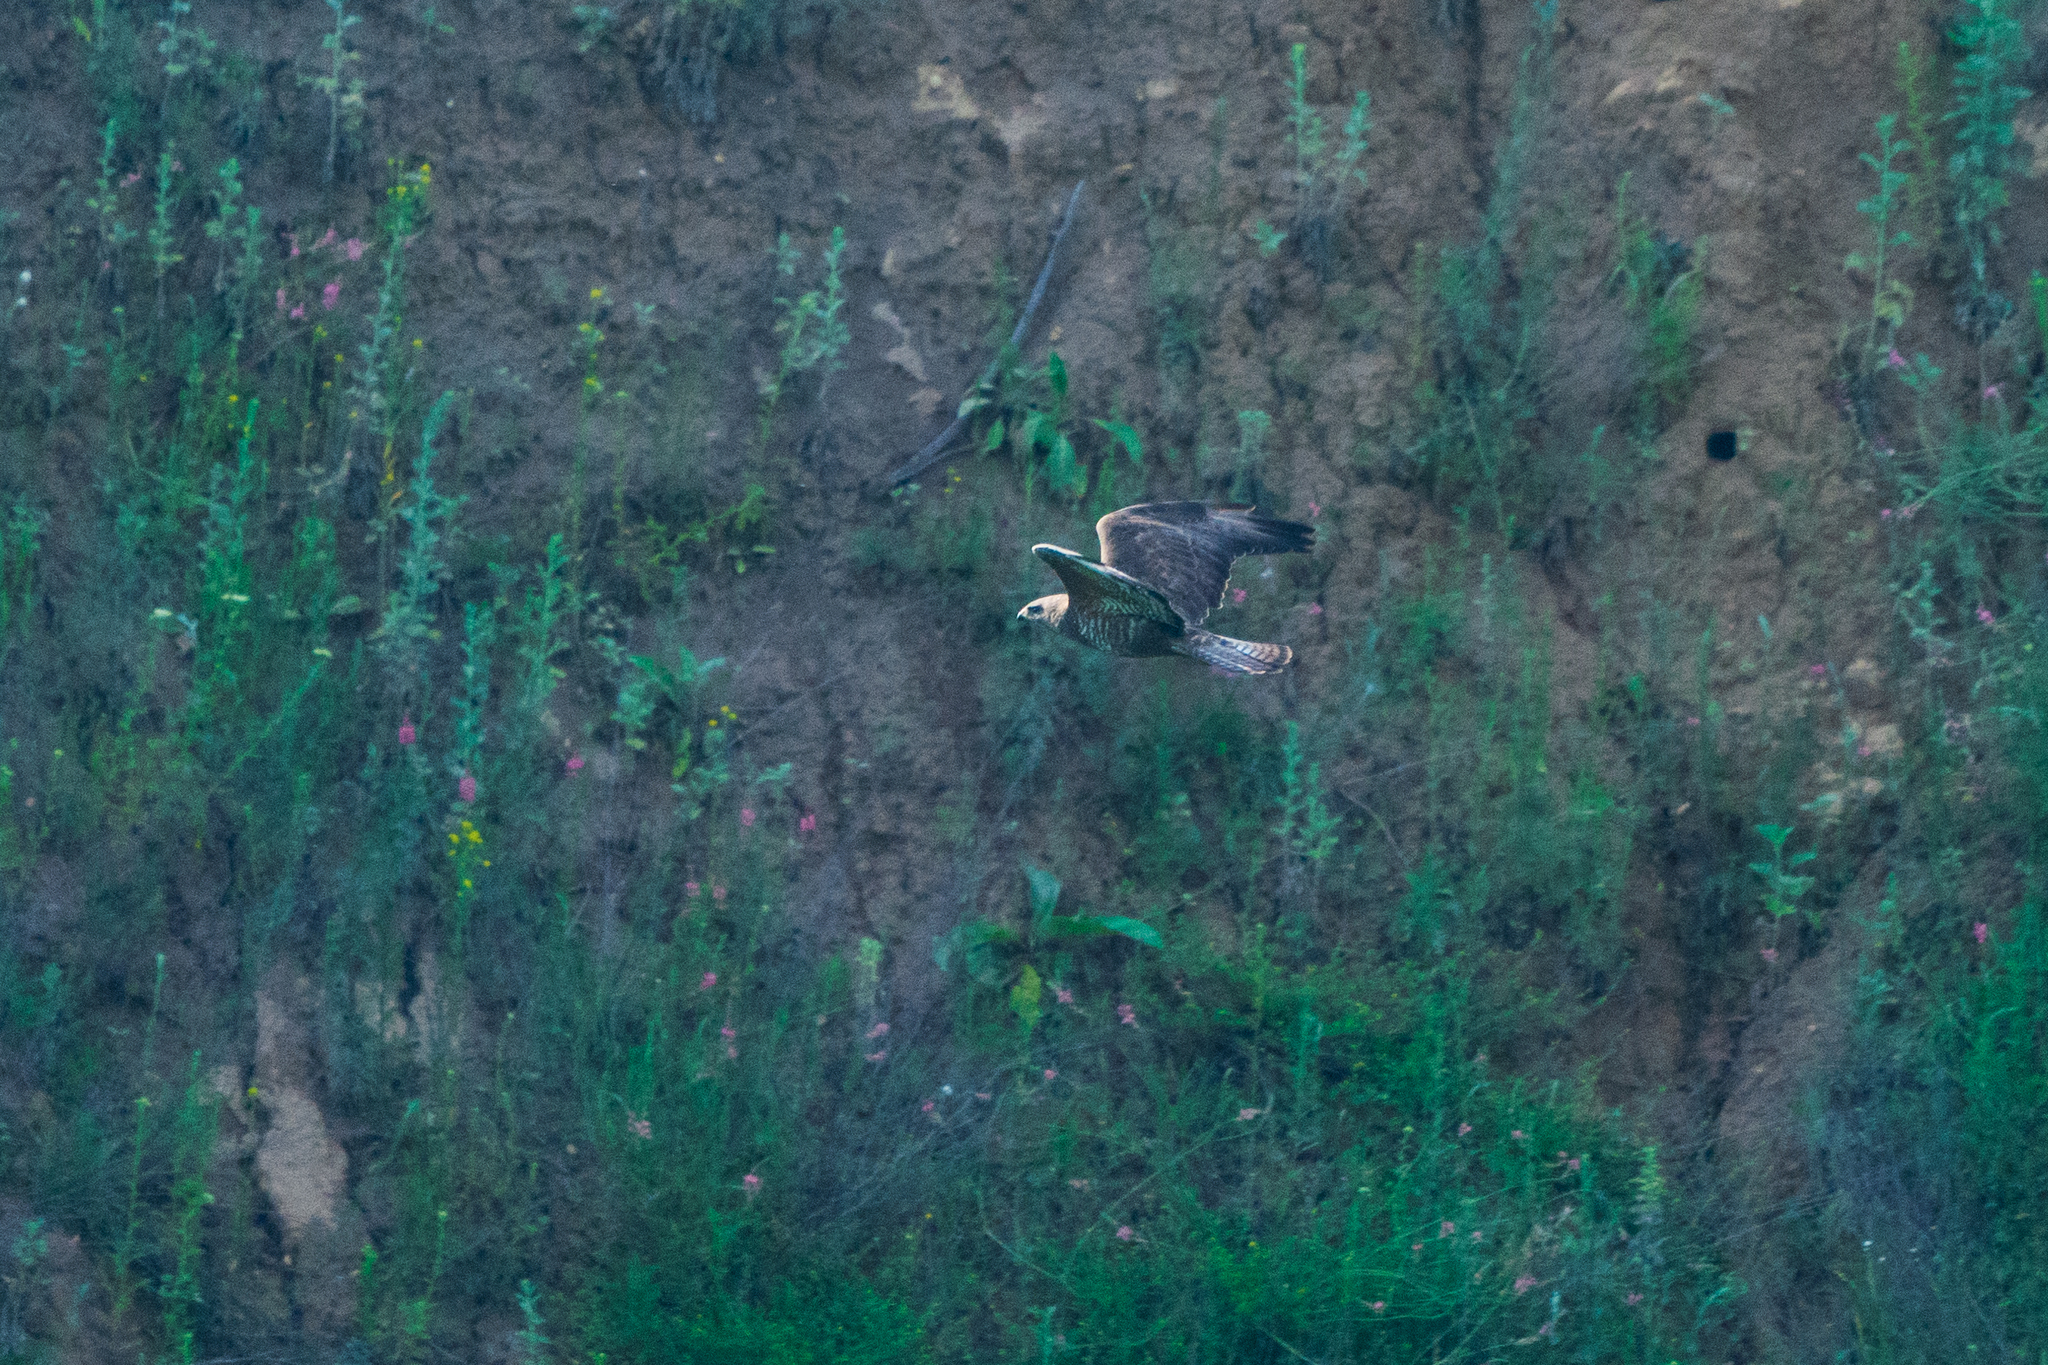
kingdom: Animalia
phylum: Chordata
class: Aves
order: Accipitriformes
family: Accipitridae
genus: Buteo
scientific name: Buteo buteo
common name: Common buzzard
